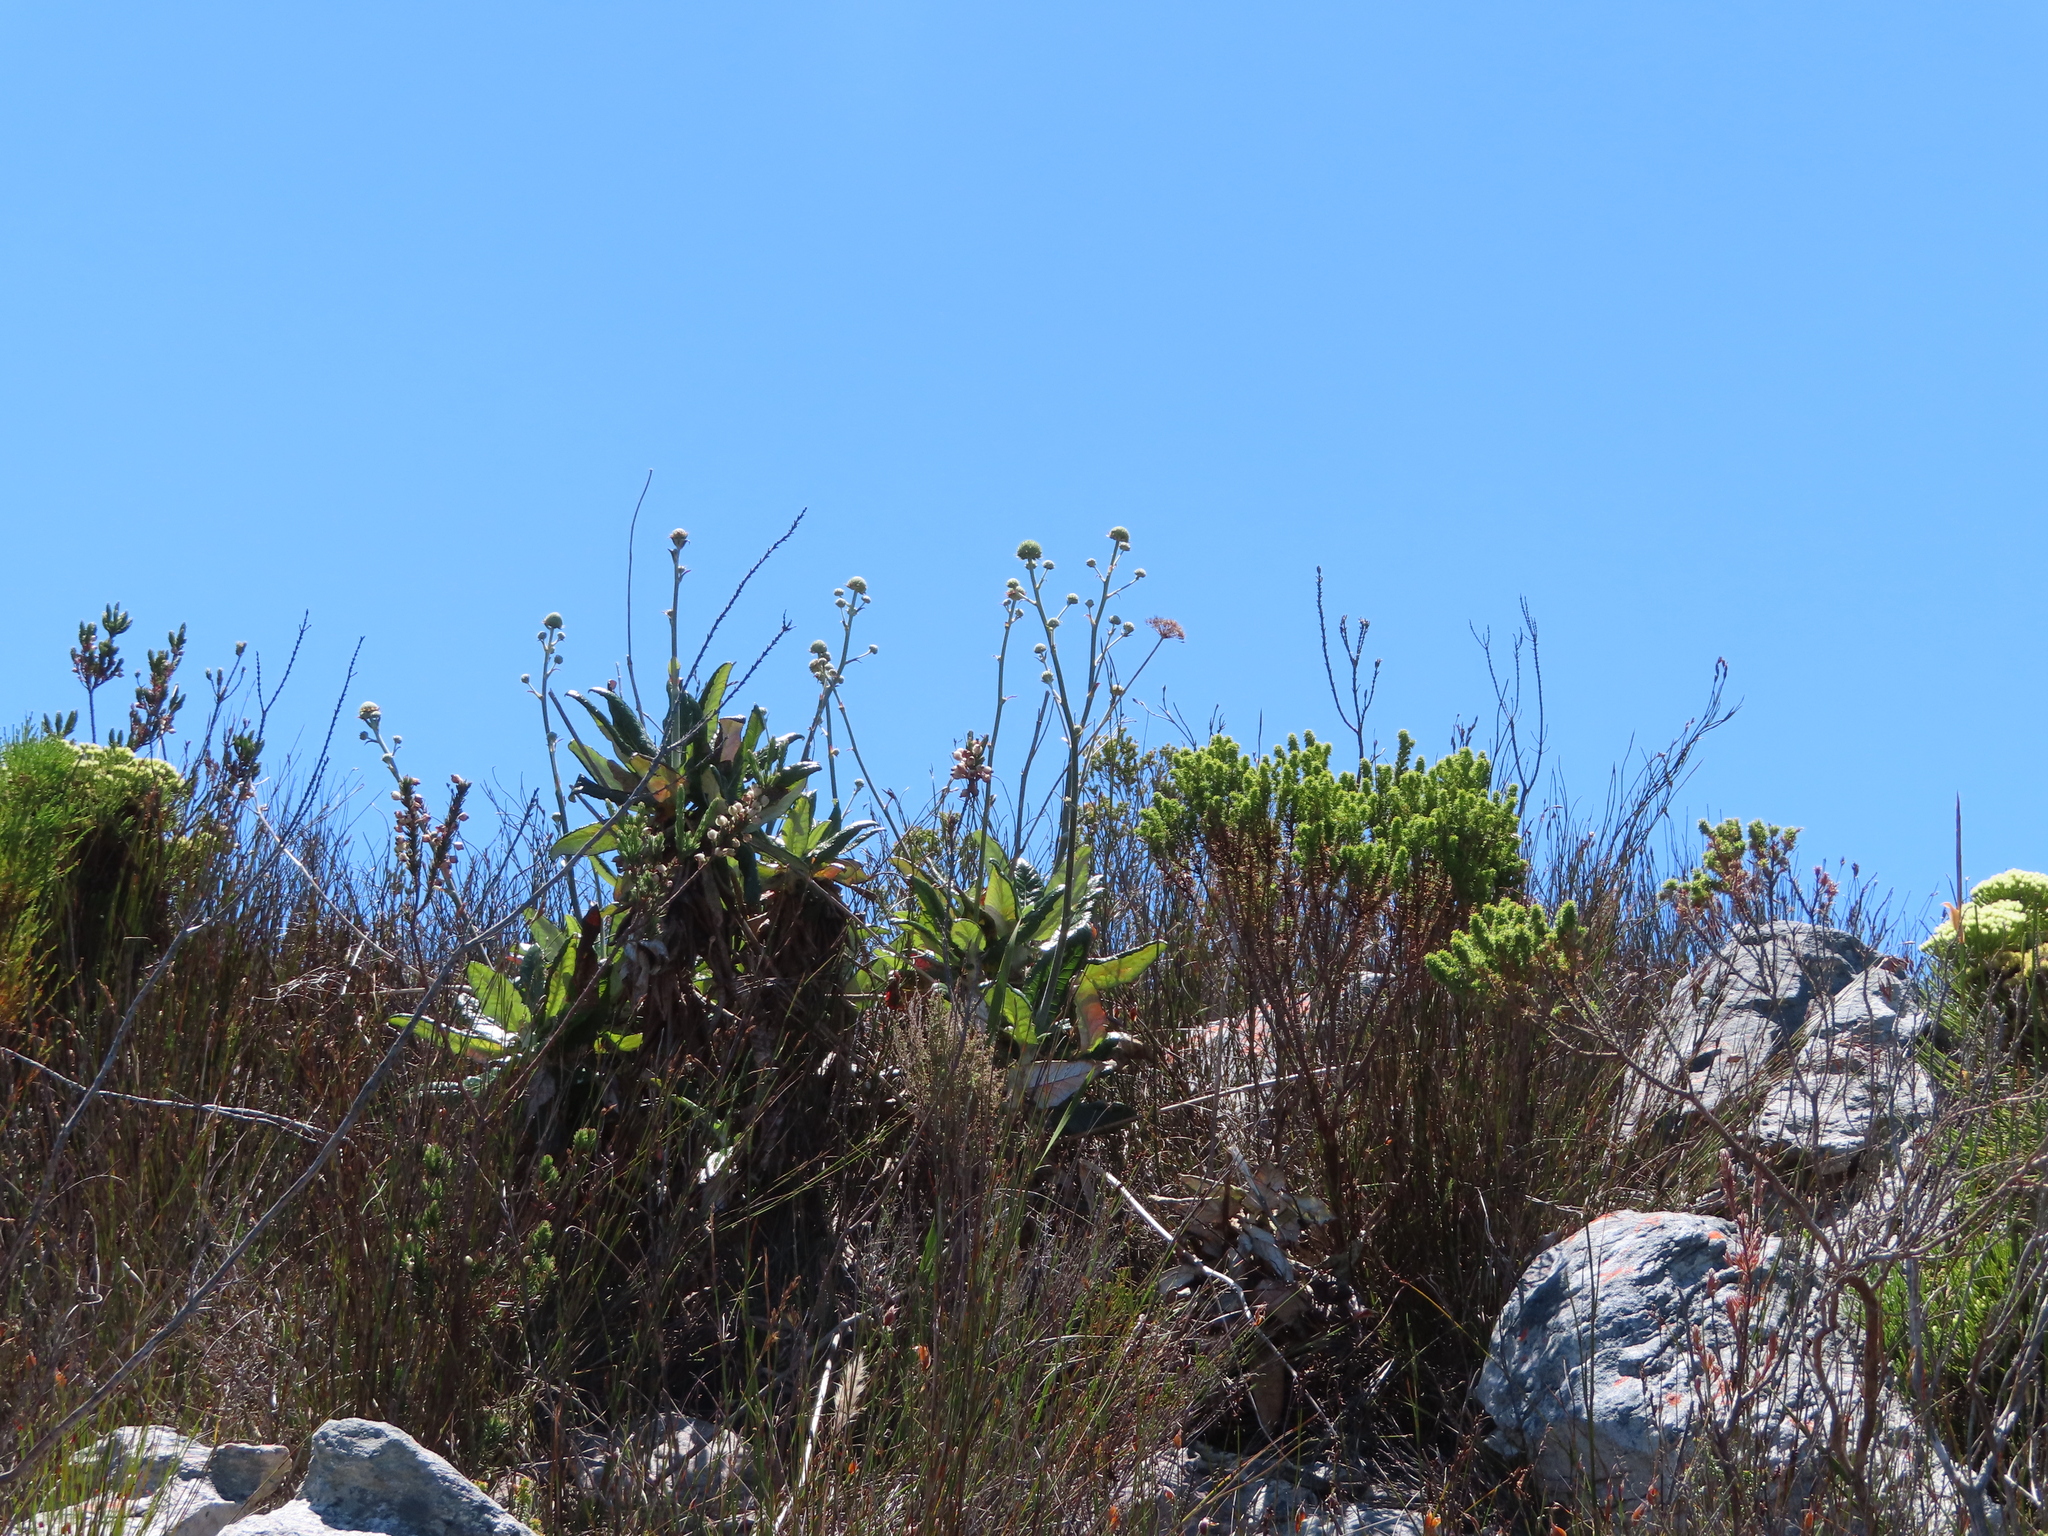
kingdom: Plantae
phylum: Tracheophyta
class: Magnoliopsida
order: Apiales
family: Apiaceae
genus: Hermas
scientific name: Hermas villosa
